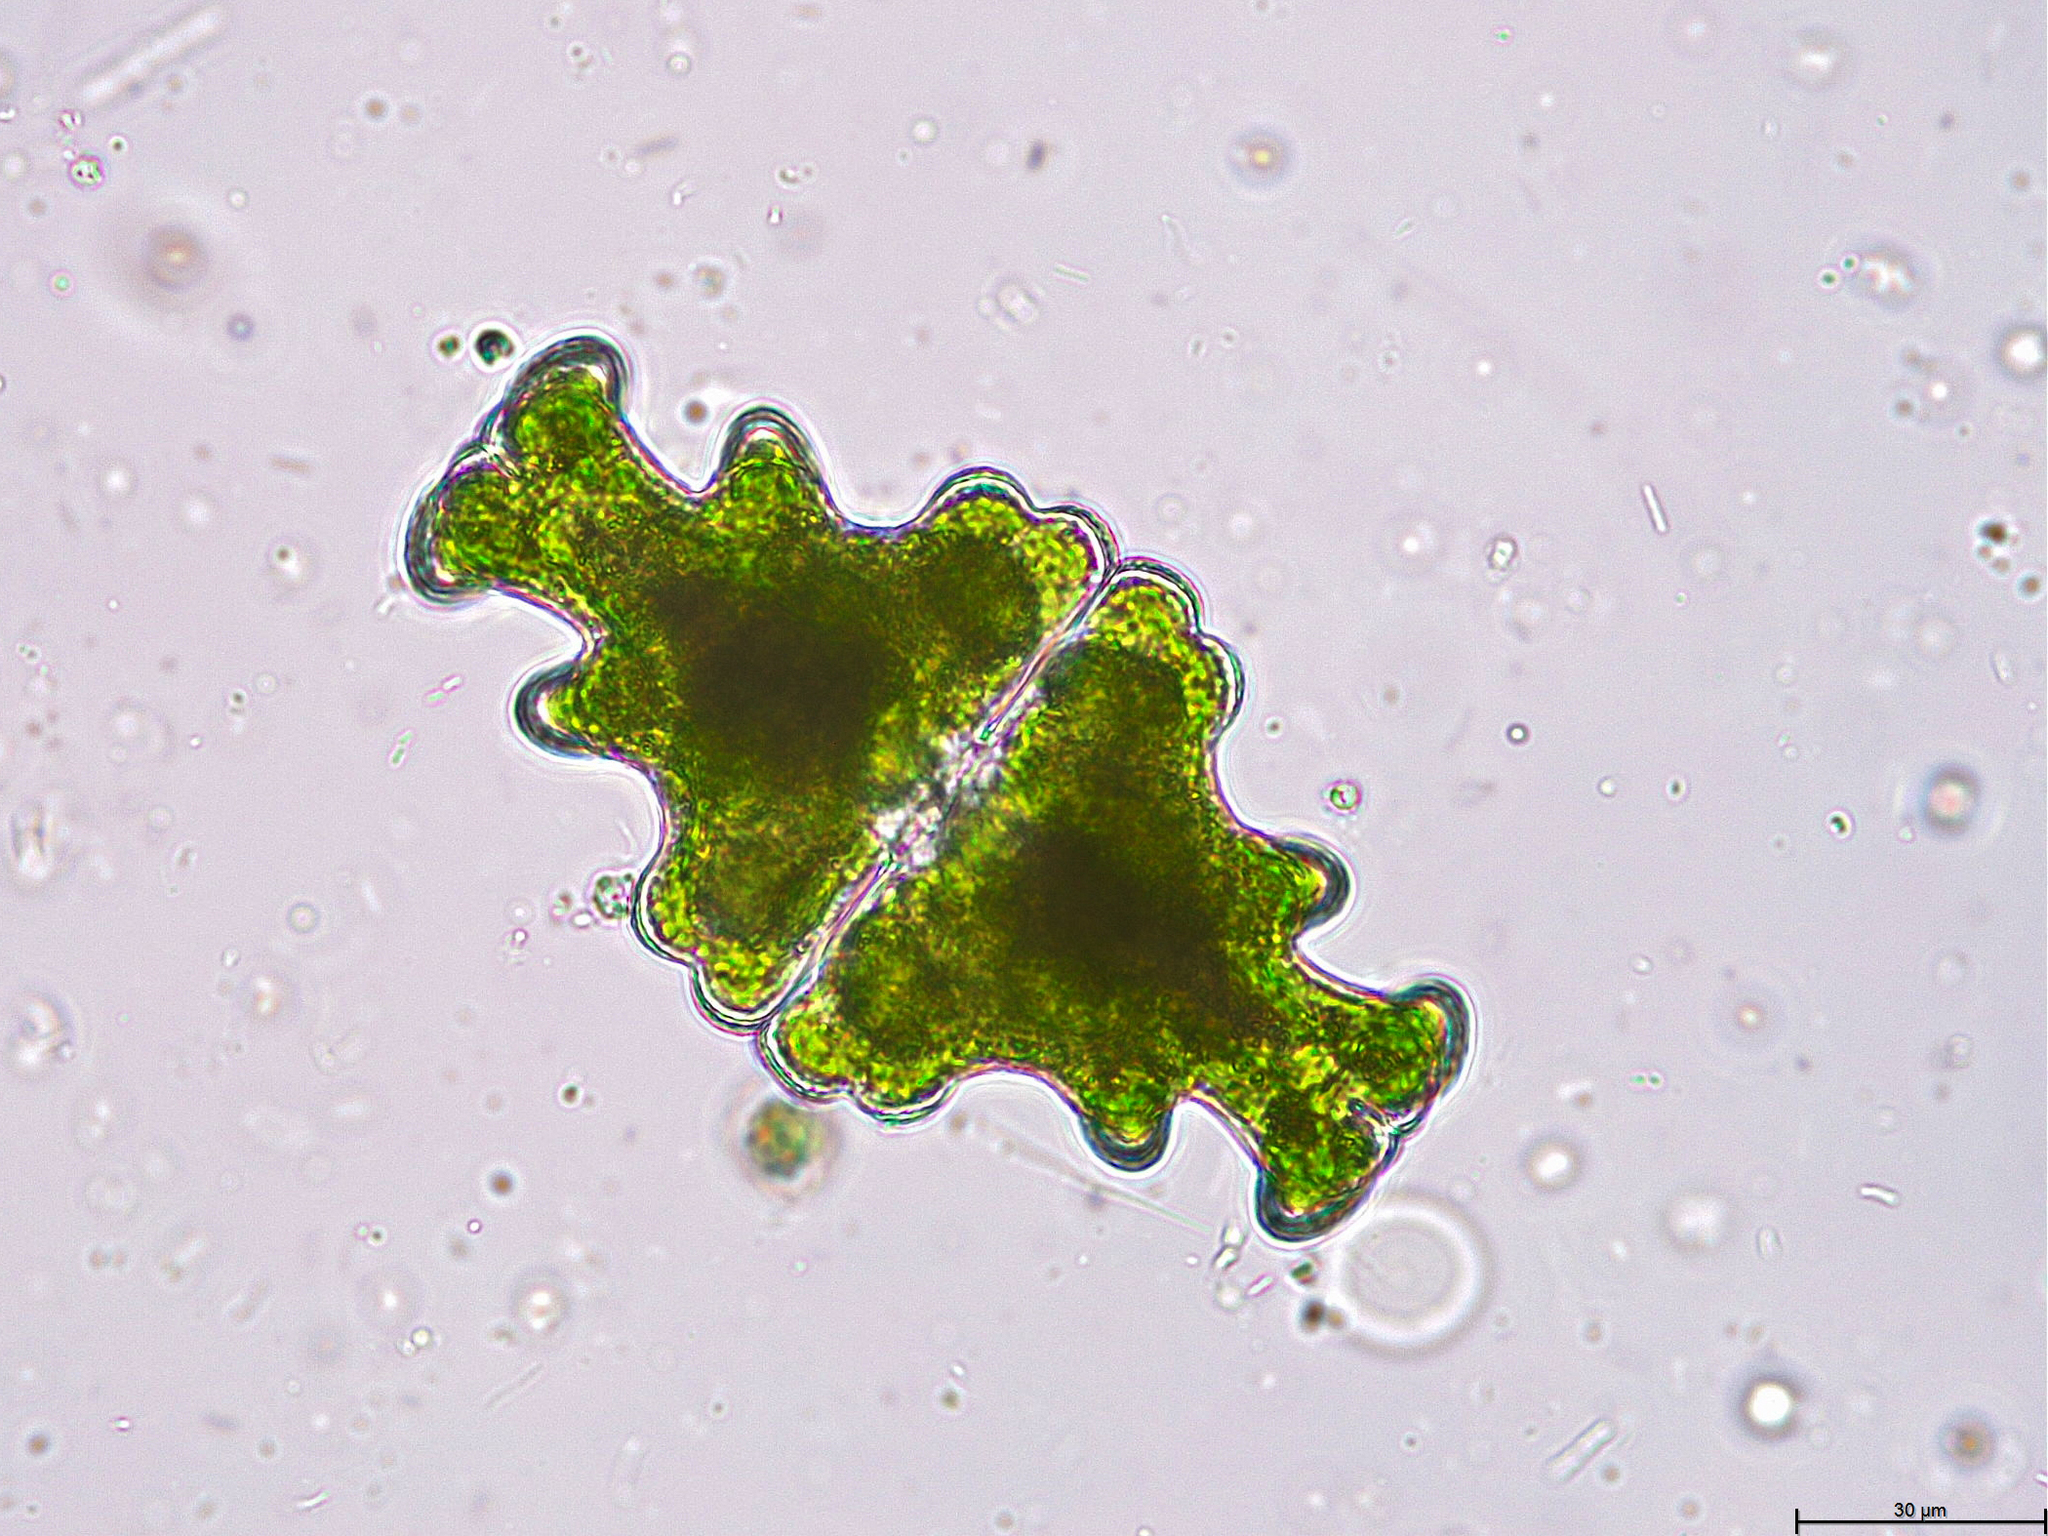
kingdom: Plantae
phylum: Charophyta
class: Conjugatophyceae
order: Desmidiales
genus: Euastrum
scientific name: Euastrum humerosum
